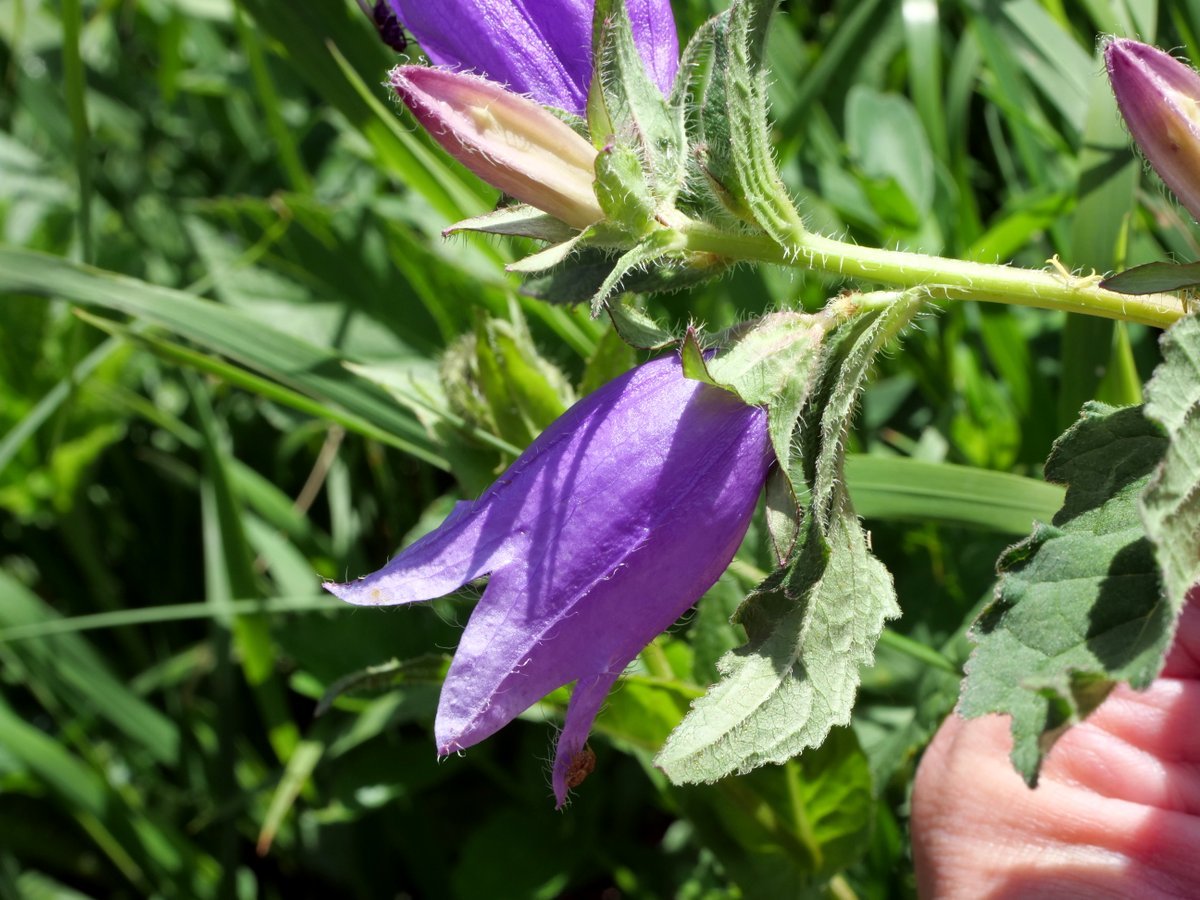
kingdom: Plantae
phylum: Tracheophyta
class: Magnoliopsida
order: Asterales
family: Campanulaceae
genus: Campanula
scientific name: Campanula trachelium
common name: Nettle-leaved bellflower
